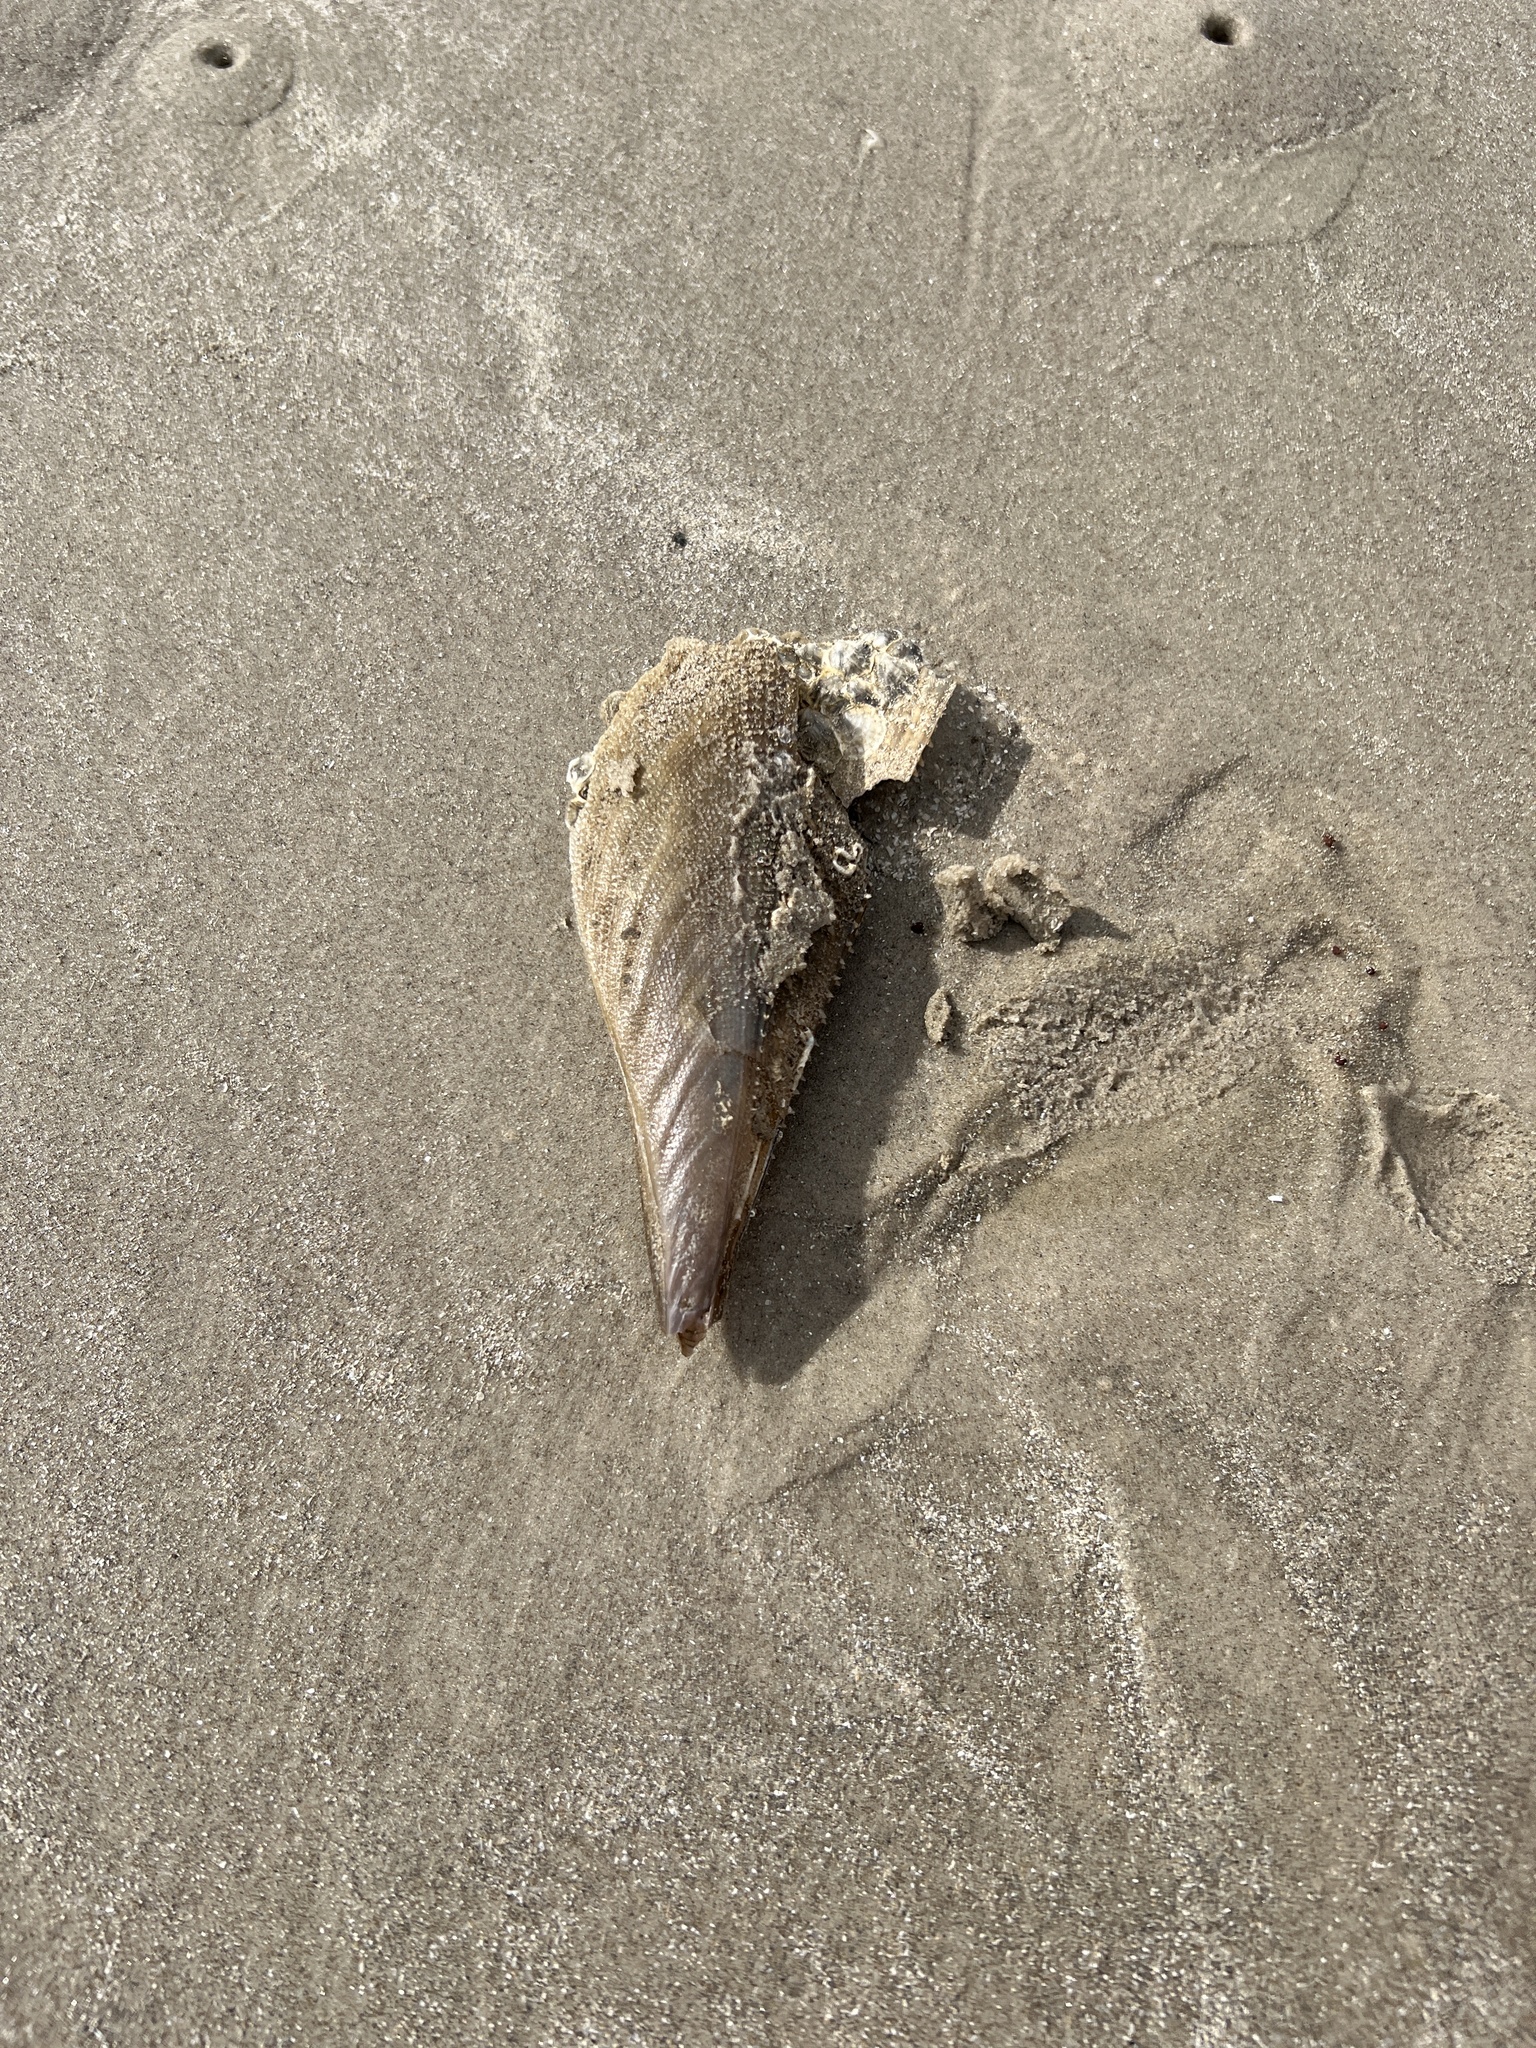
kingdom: Animalia
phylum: Mollusca
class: Bivalvia
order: Ostreida
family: Pinnidae
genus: Atrina
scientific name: Atrina serrata
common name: Saw-toothed penshell
